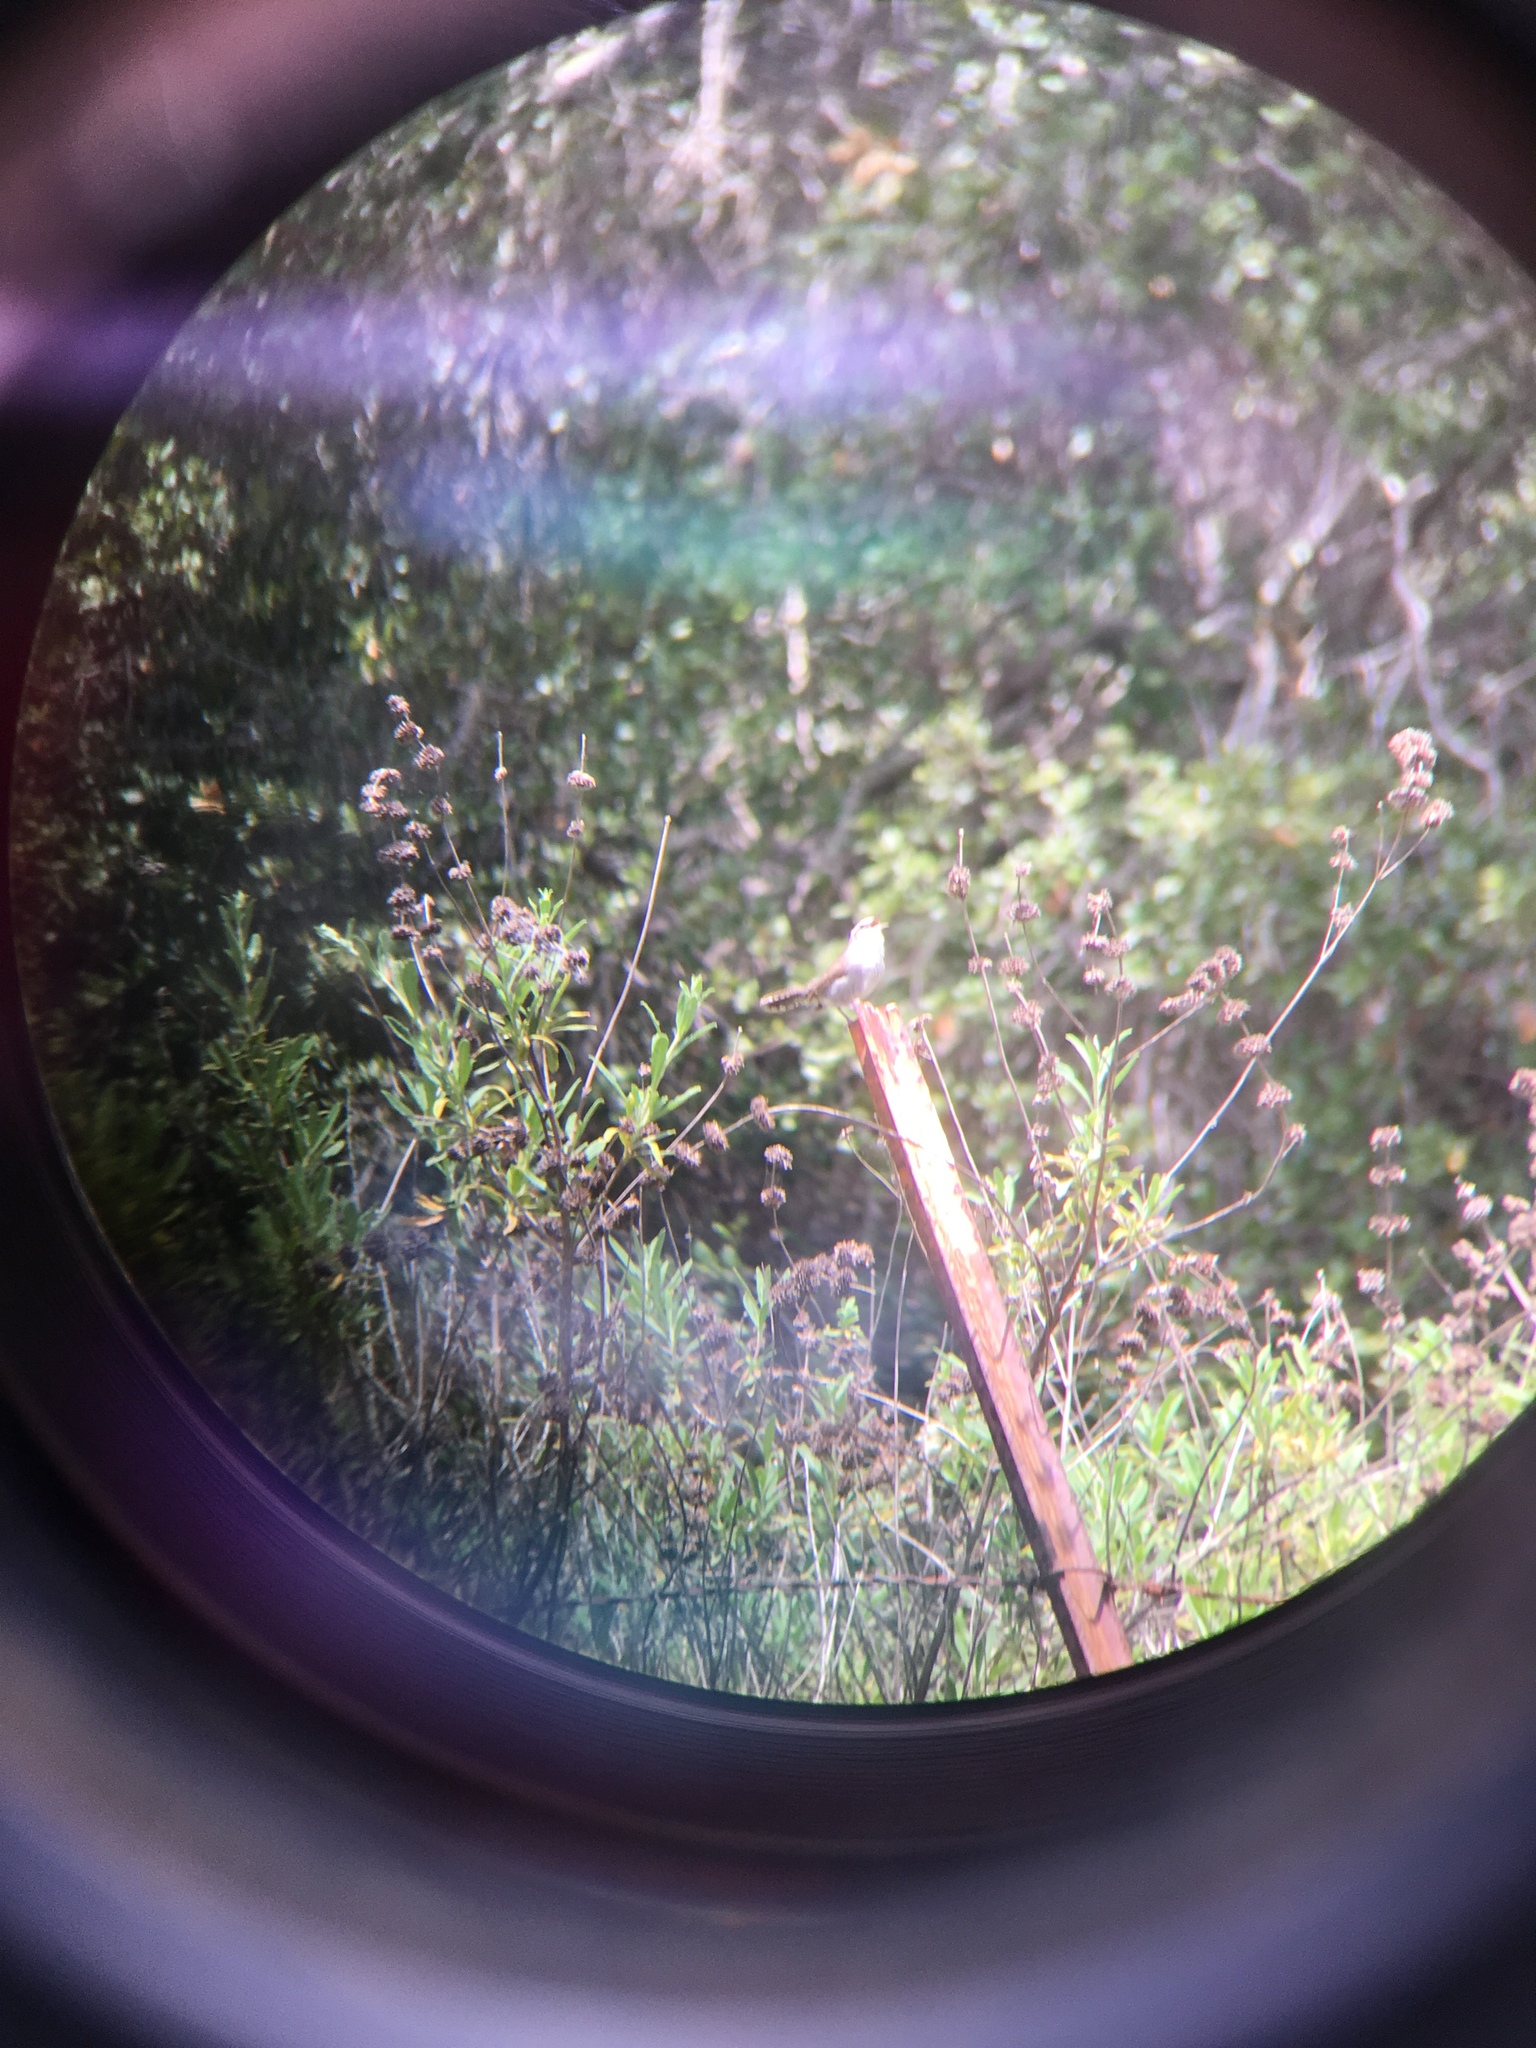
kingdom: Animalia
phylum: Chordata
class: Aves
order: Passeriformes
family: Troglodytidae
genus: Thryomanes
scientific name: Thryomanes bewickii
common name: Bewick's wren
